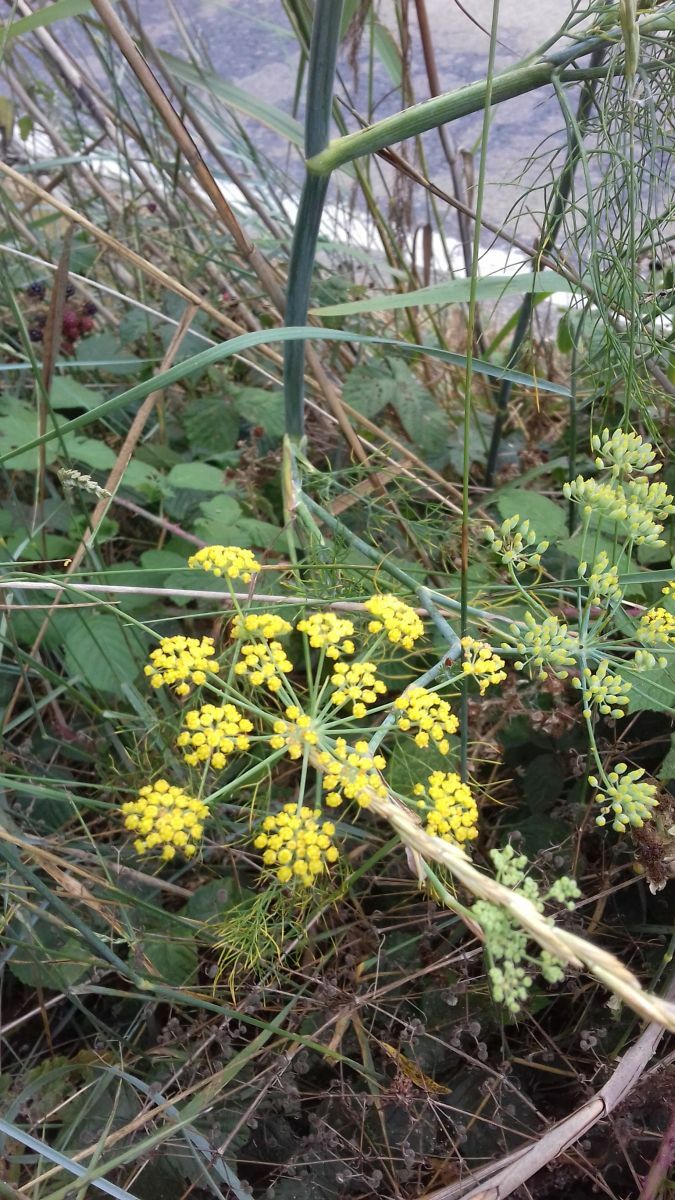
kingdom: Plantae
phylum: Tracheophyta
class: Magnoliopsida
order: Apiales
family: Apiaceae
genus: Foeniculum
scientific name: Foeniculum vulgare
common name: Fennel
